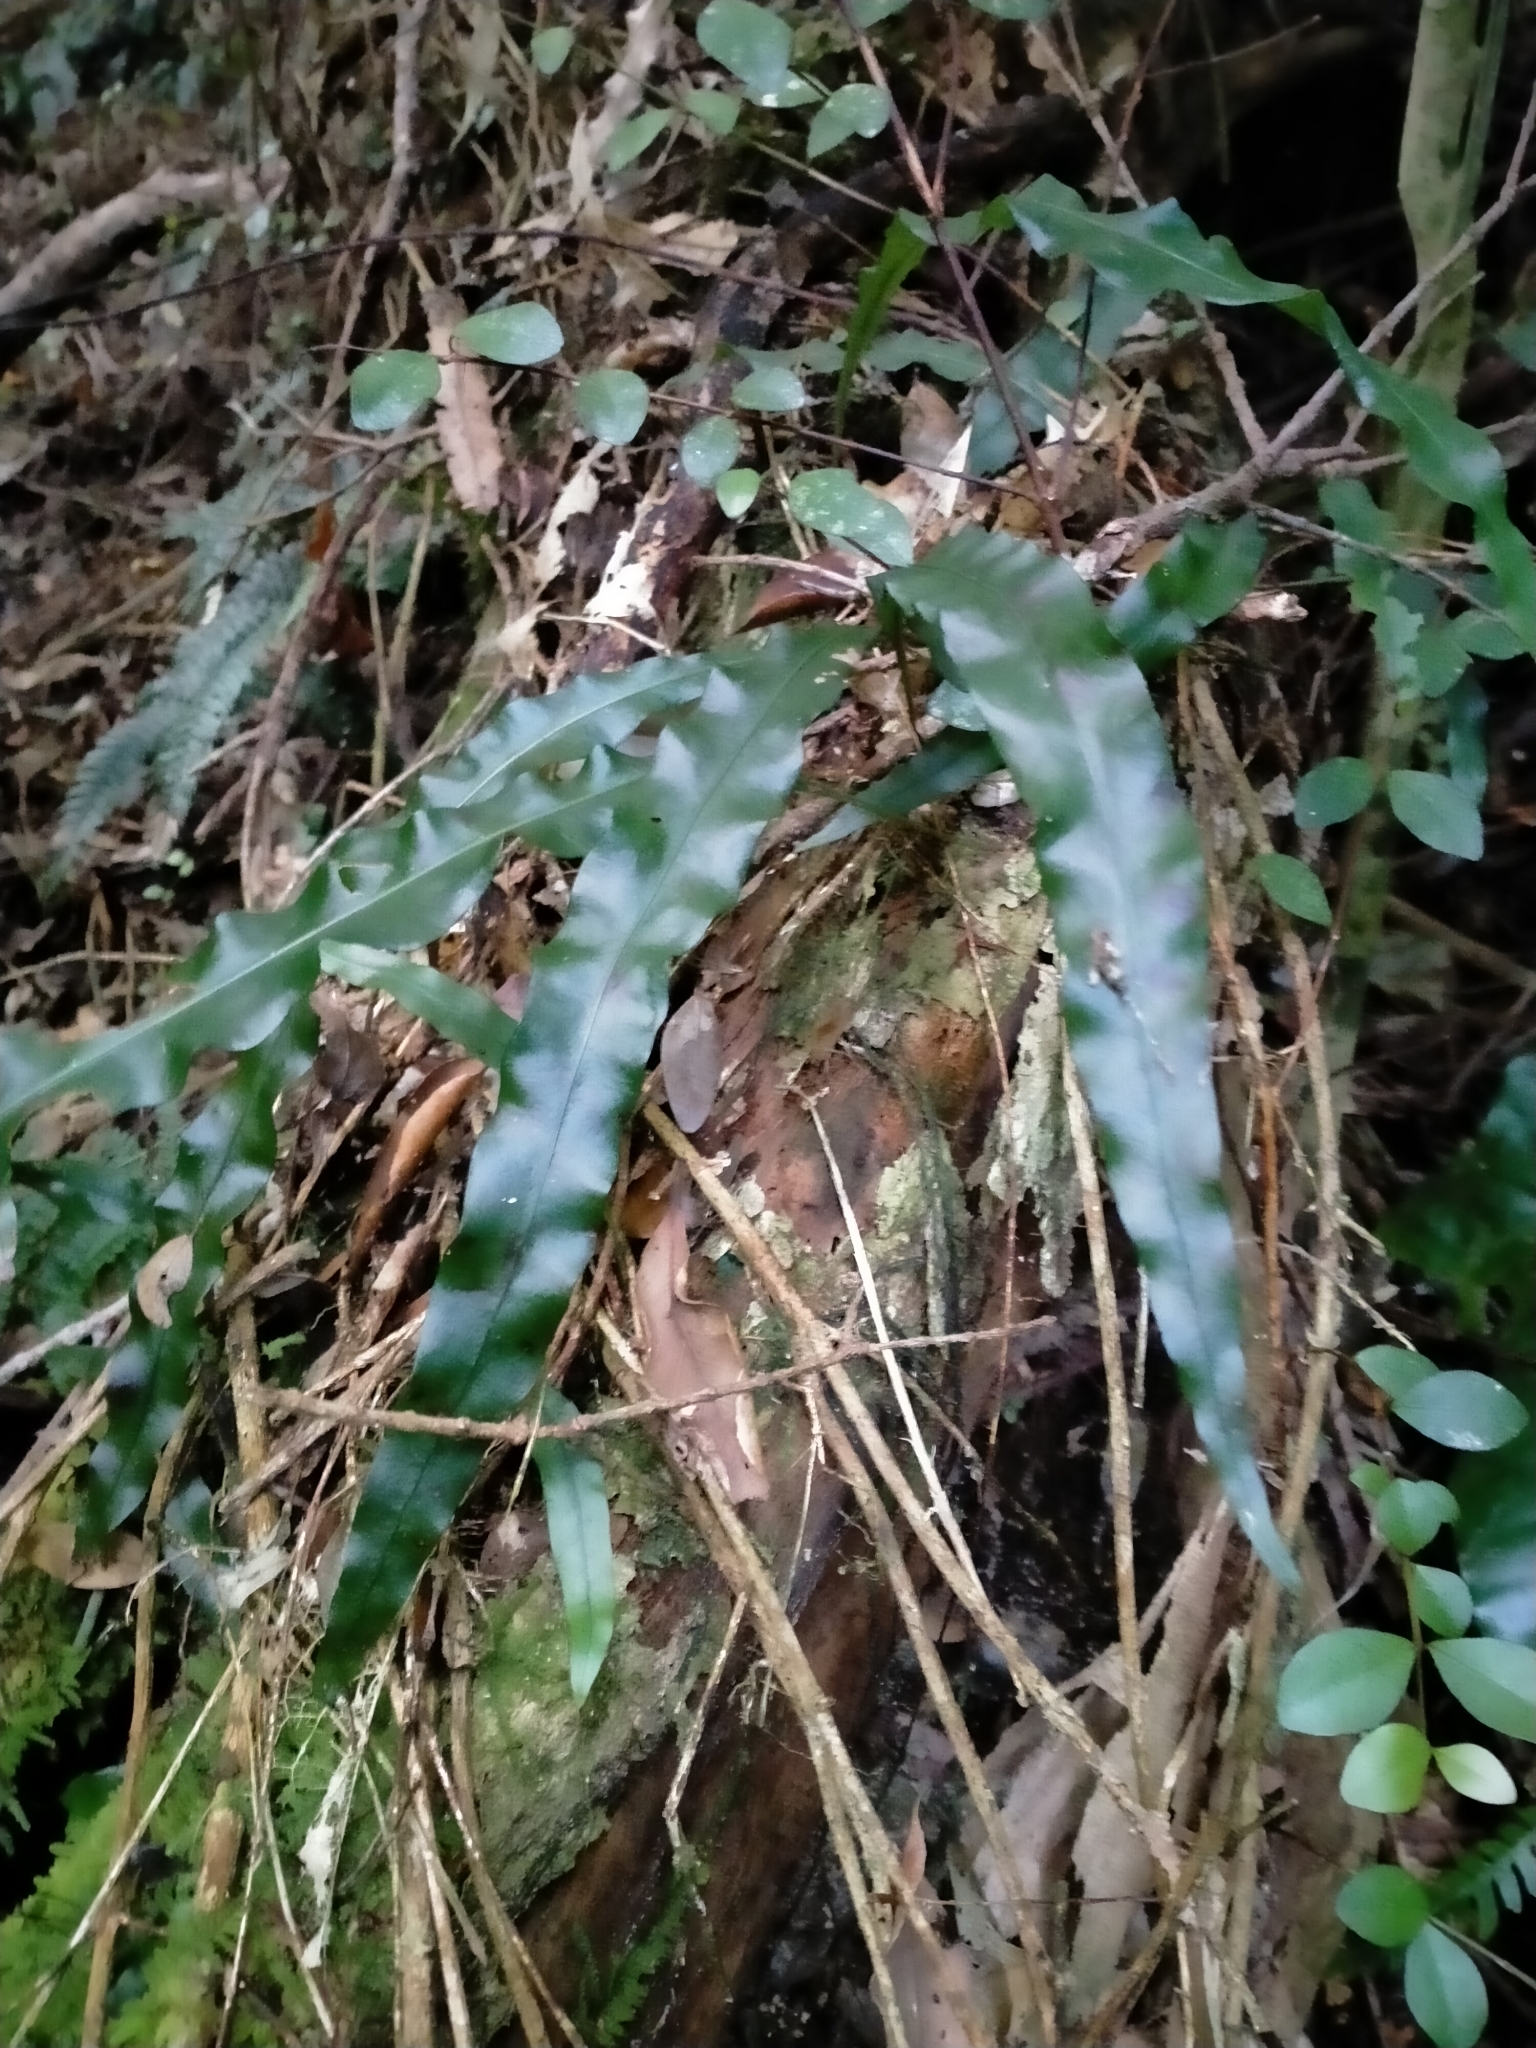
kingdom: Plantae
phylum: Tracheophyta
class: Polypodiopsida
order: Polypodiales
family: Polypodiaceae
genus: Lecanopteris
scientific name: Lecanopteris scandens
